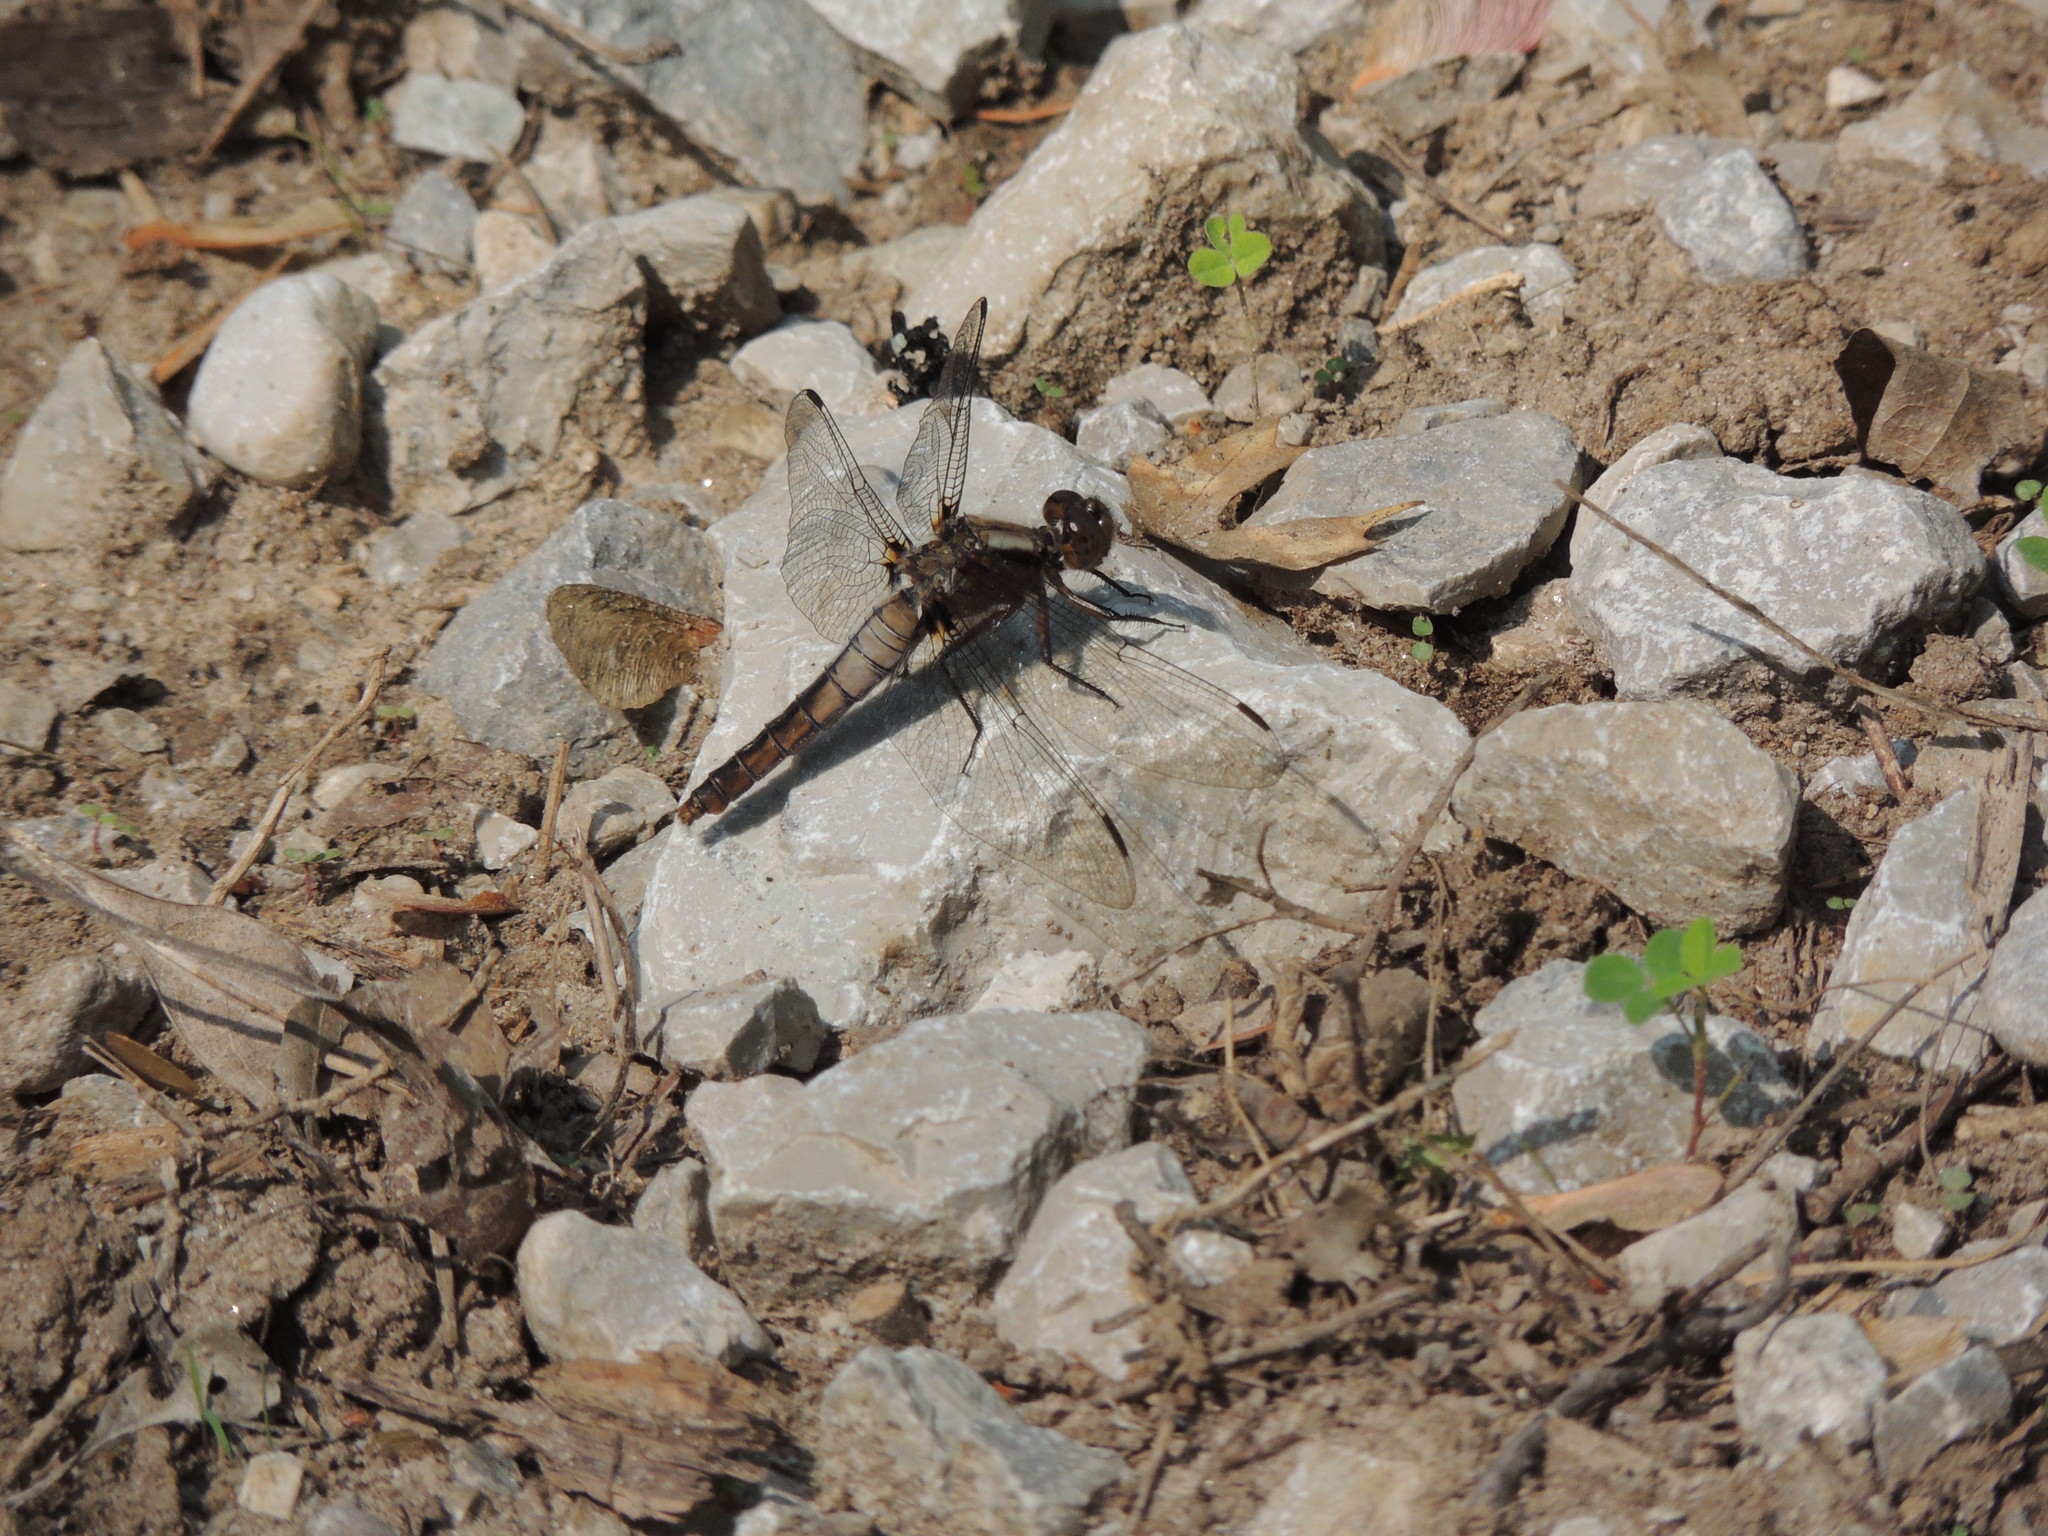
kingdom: Animalia
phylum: Arthropoda
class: Insecta
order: Odonata
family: Libellulidae
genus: Ladona
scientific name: Ladona julia
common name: Chalk-fronted corporal
